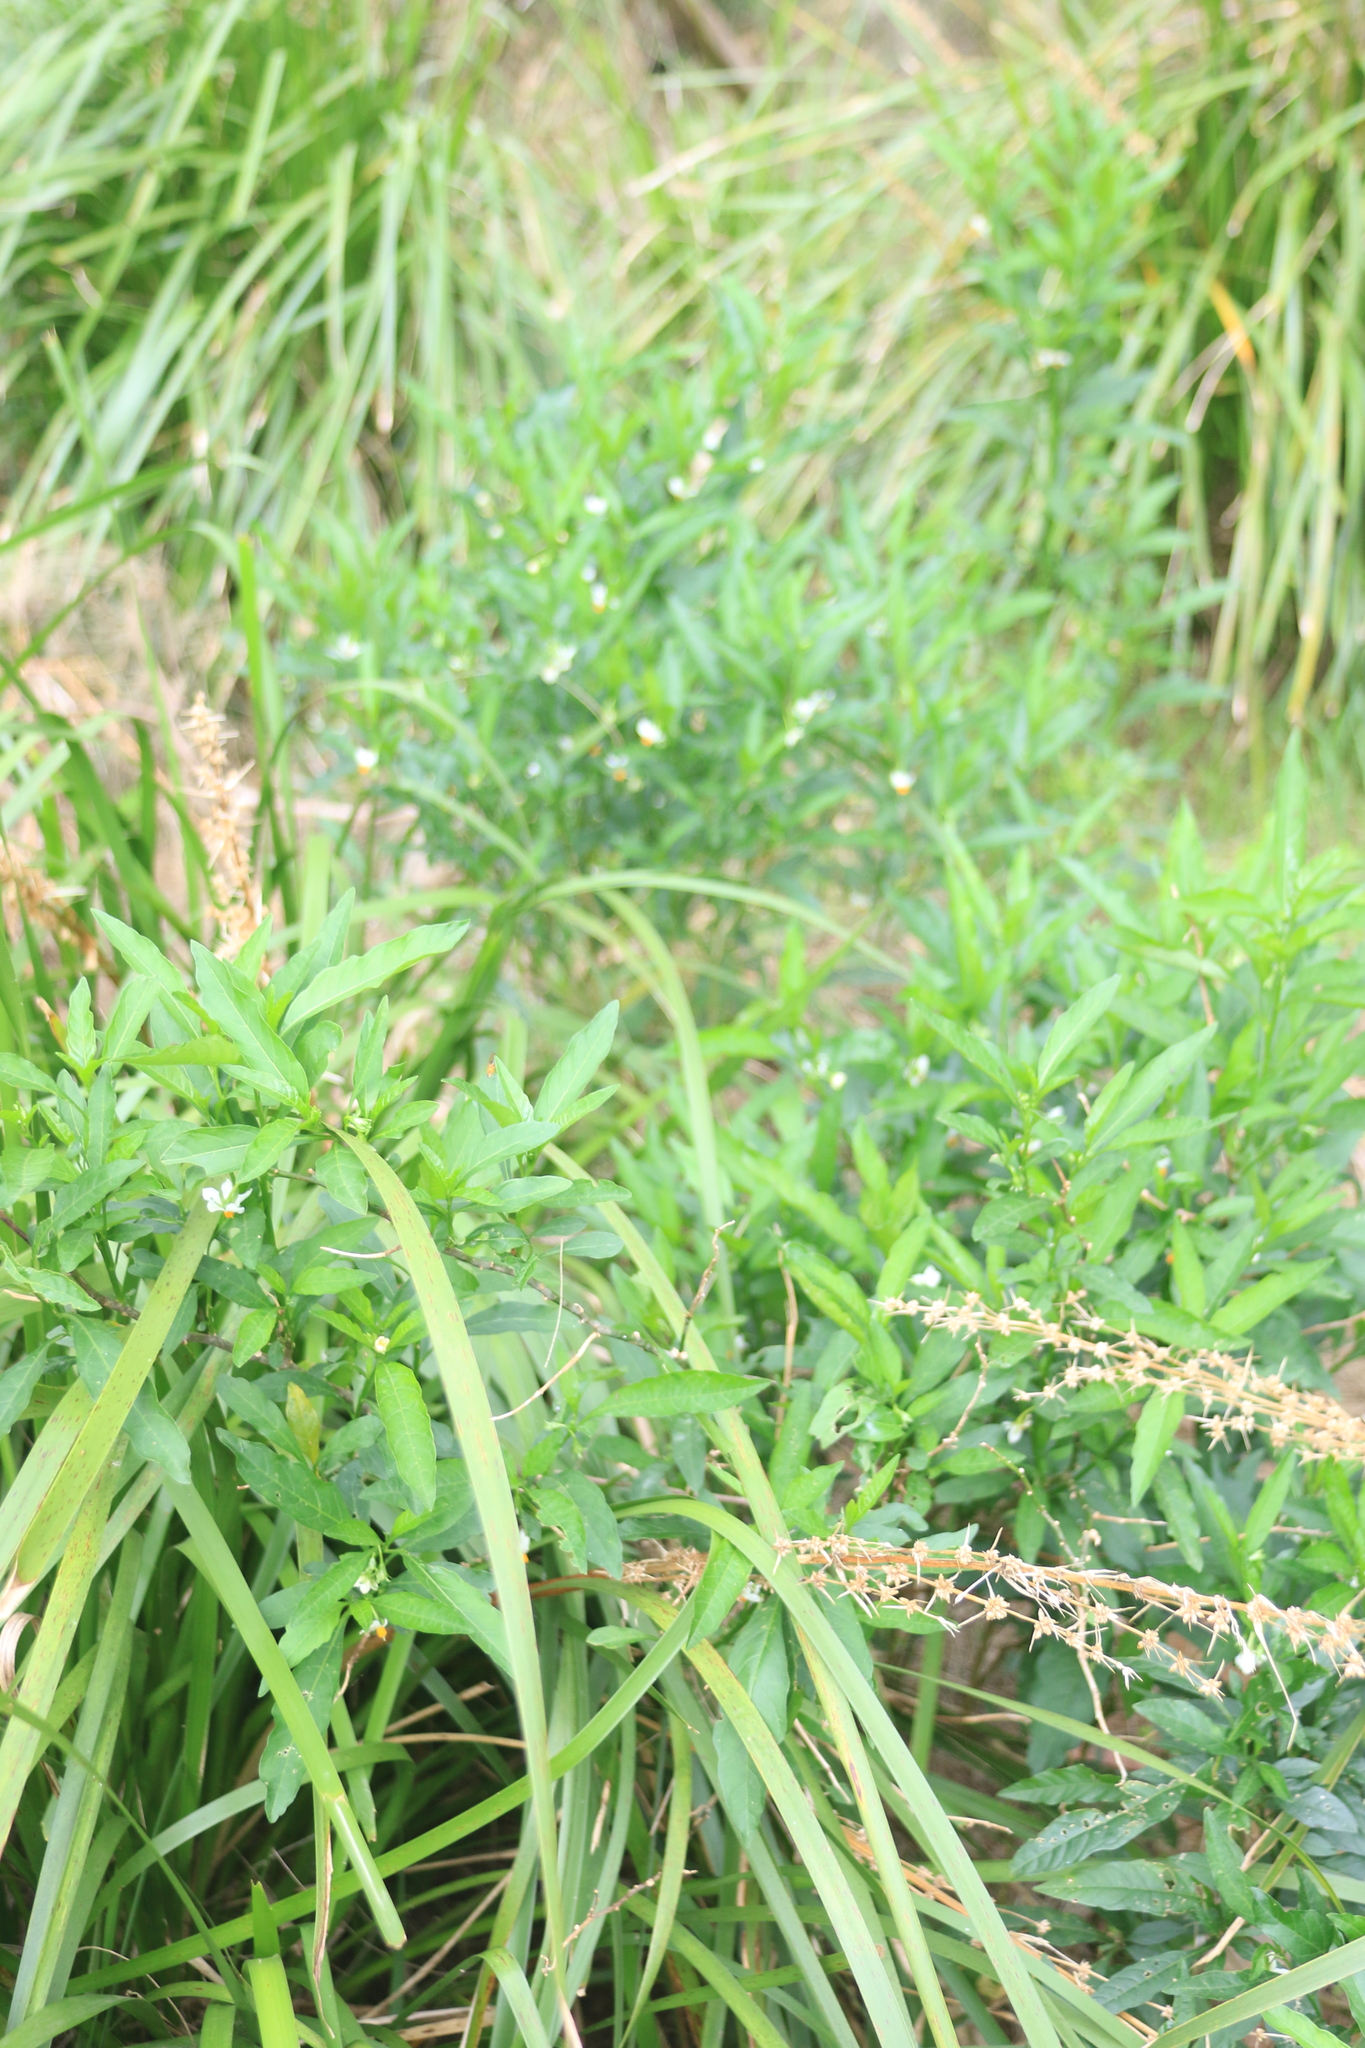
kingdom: Plantae
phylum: Tracheophyta
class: Magnoliopsida
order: Solanales
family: Solanaceae
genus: Solanum
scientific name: Solanum pseudocapsicum
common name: Jerusalem cherry
